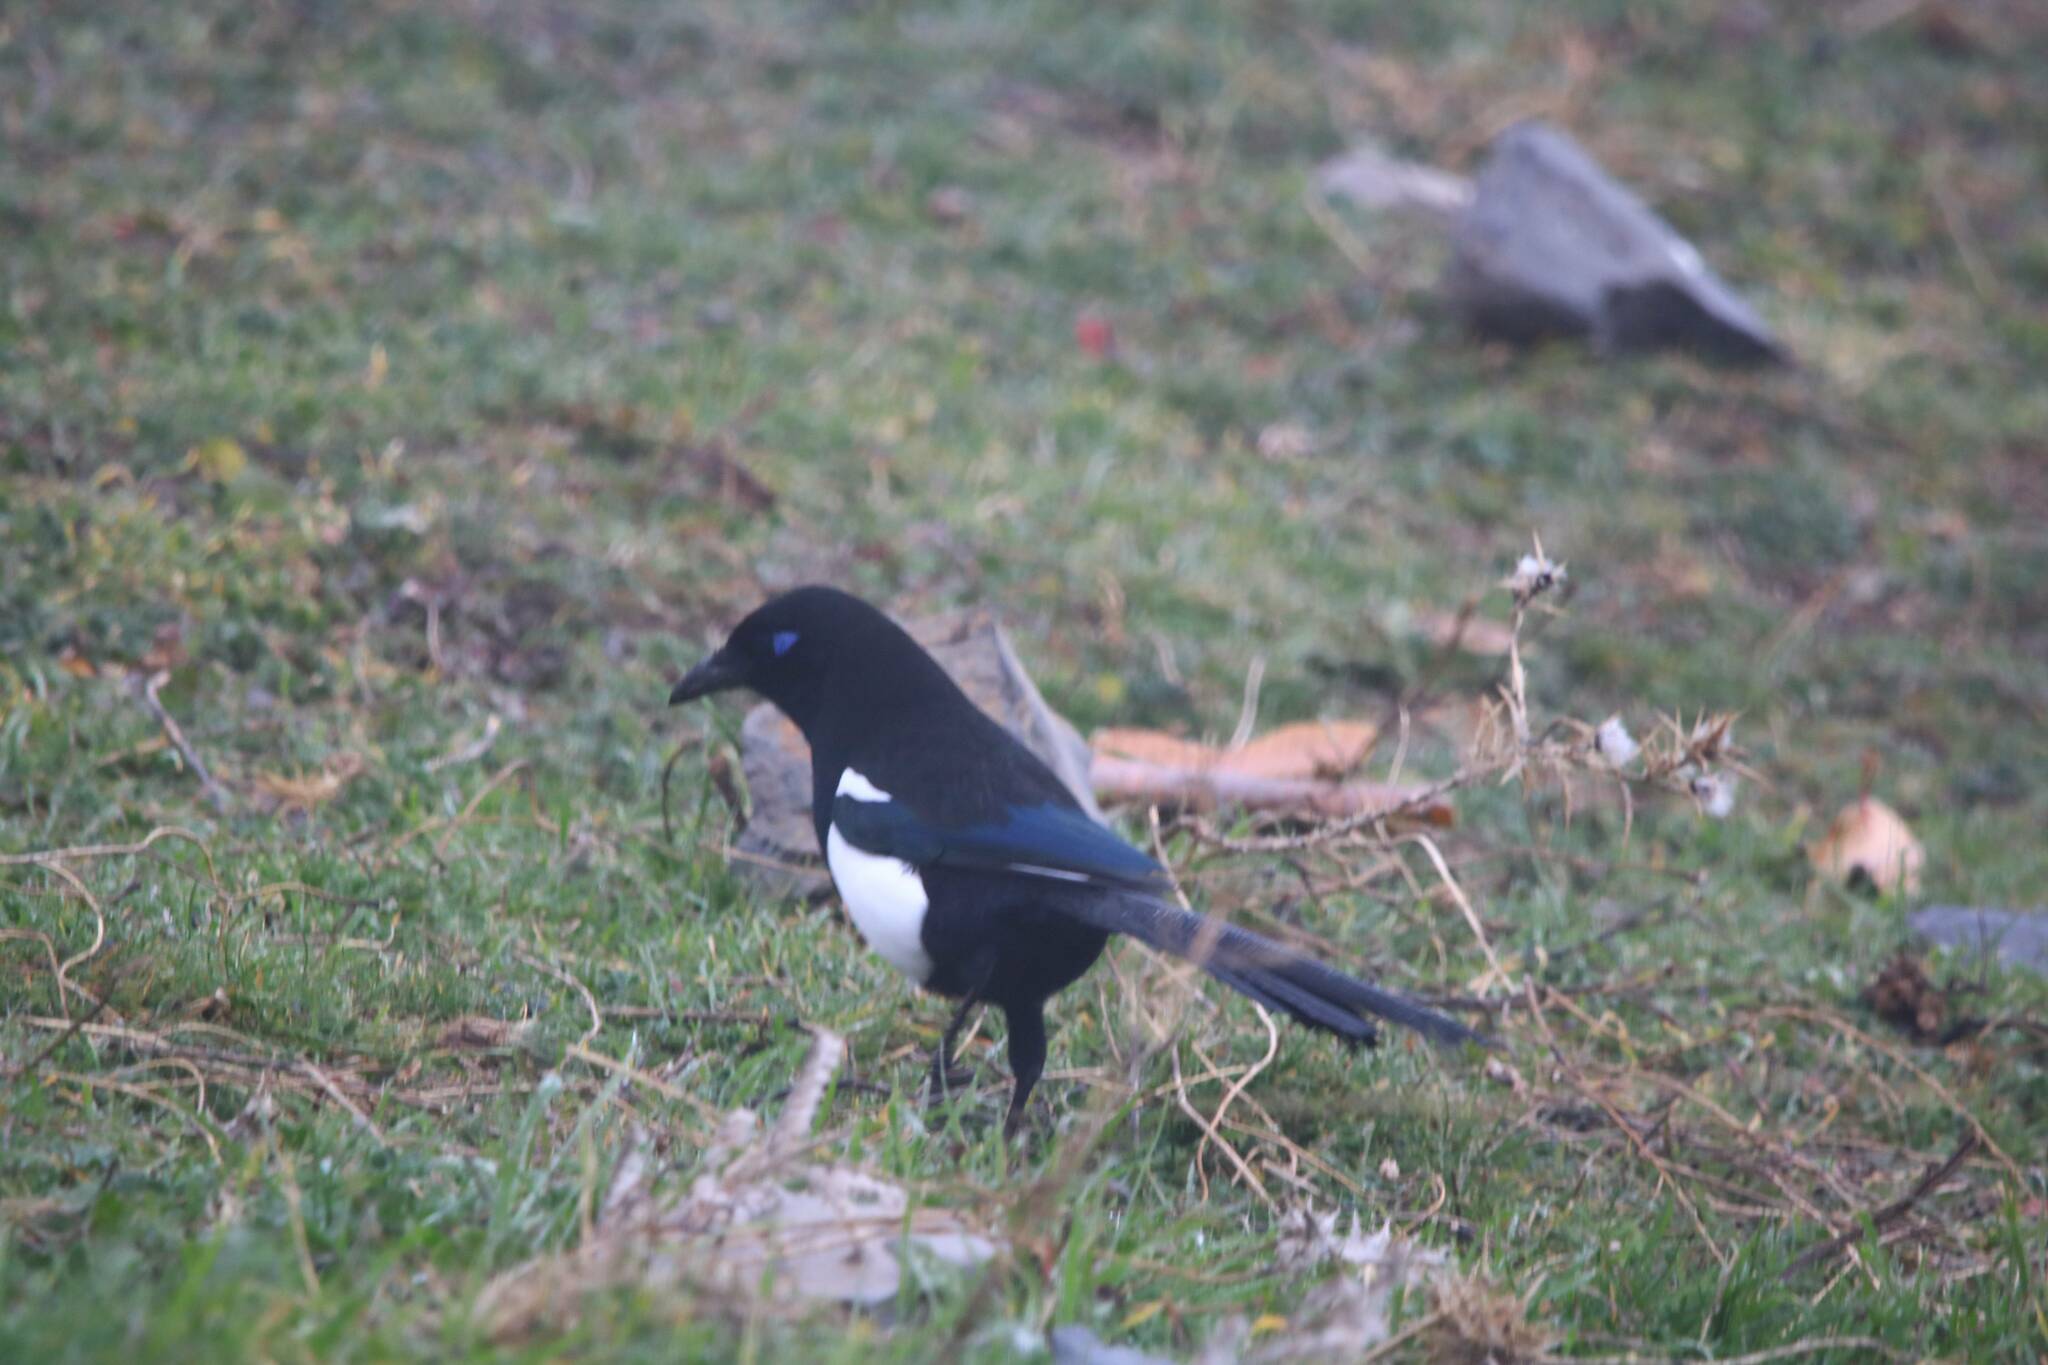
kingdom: Animalia
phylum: Chordata
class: Aves
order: Passeriformes
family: Corvidae
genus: Pica
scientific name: Pica mauritanica
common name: Maghreb magpie
